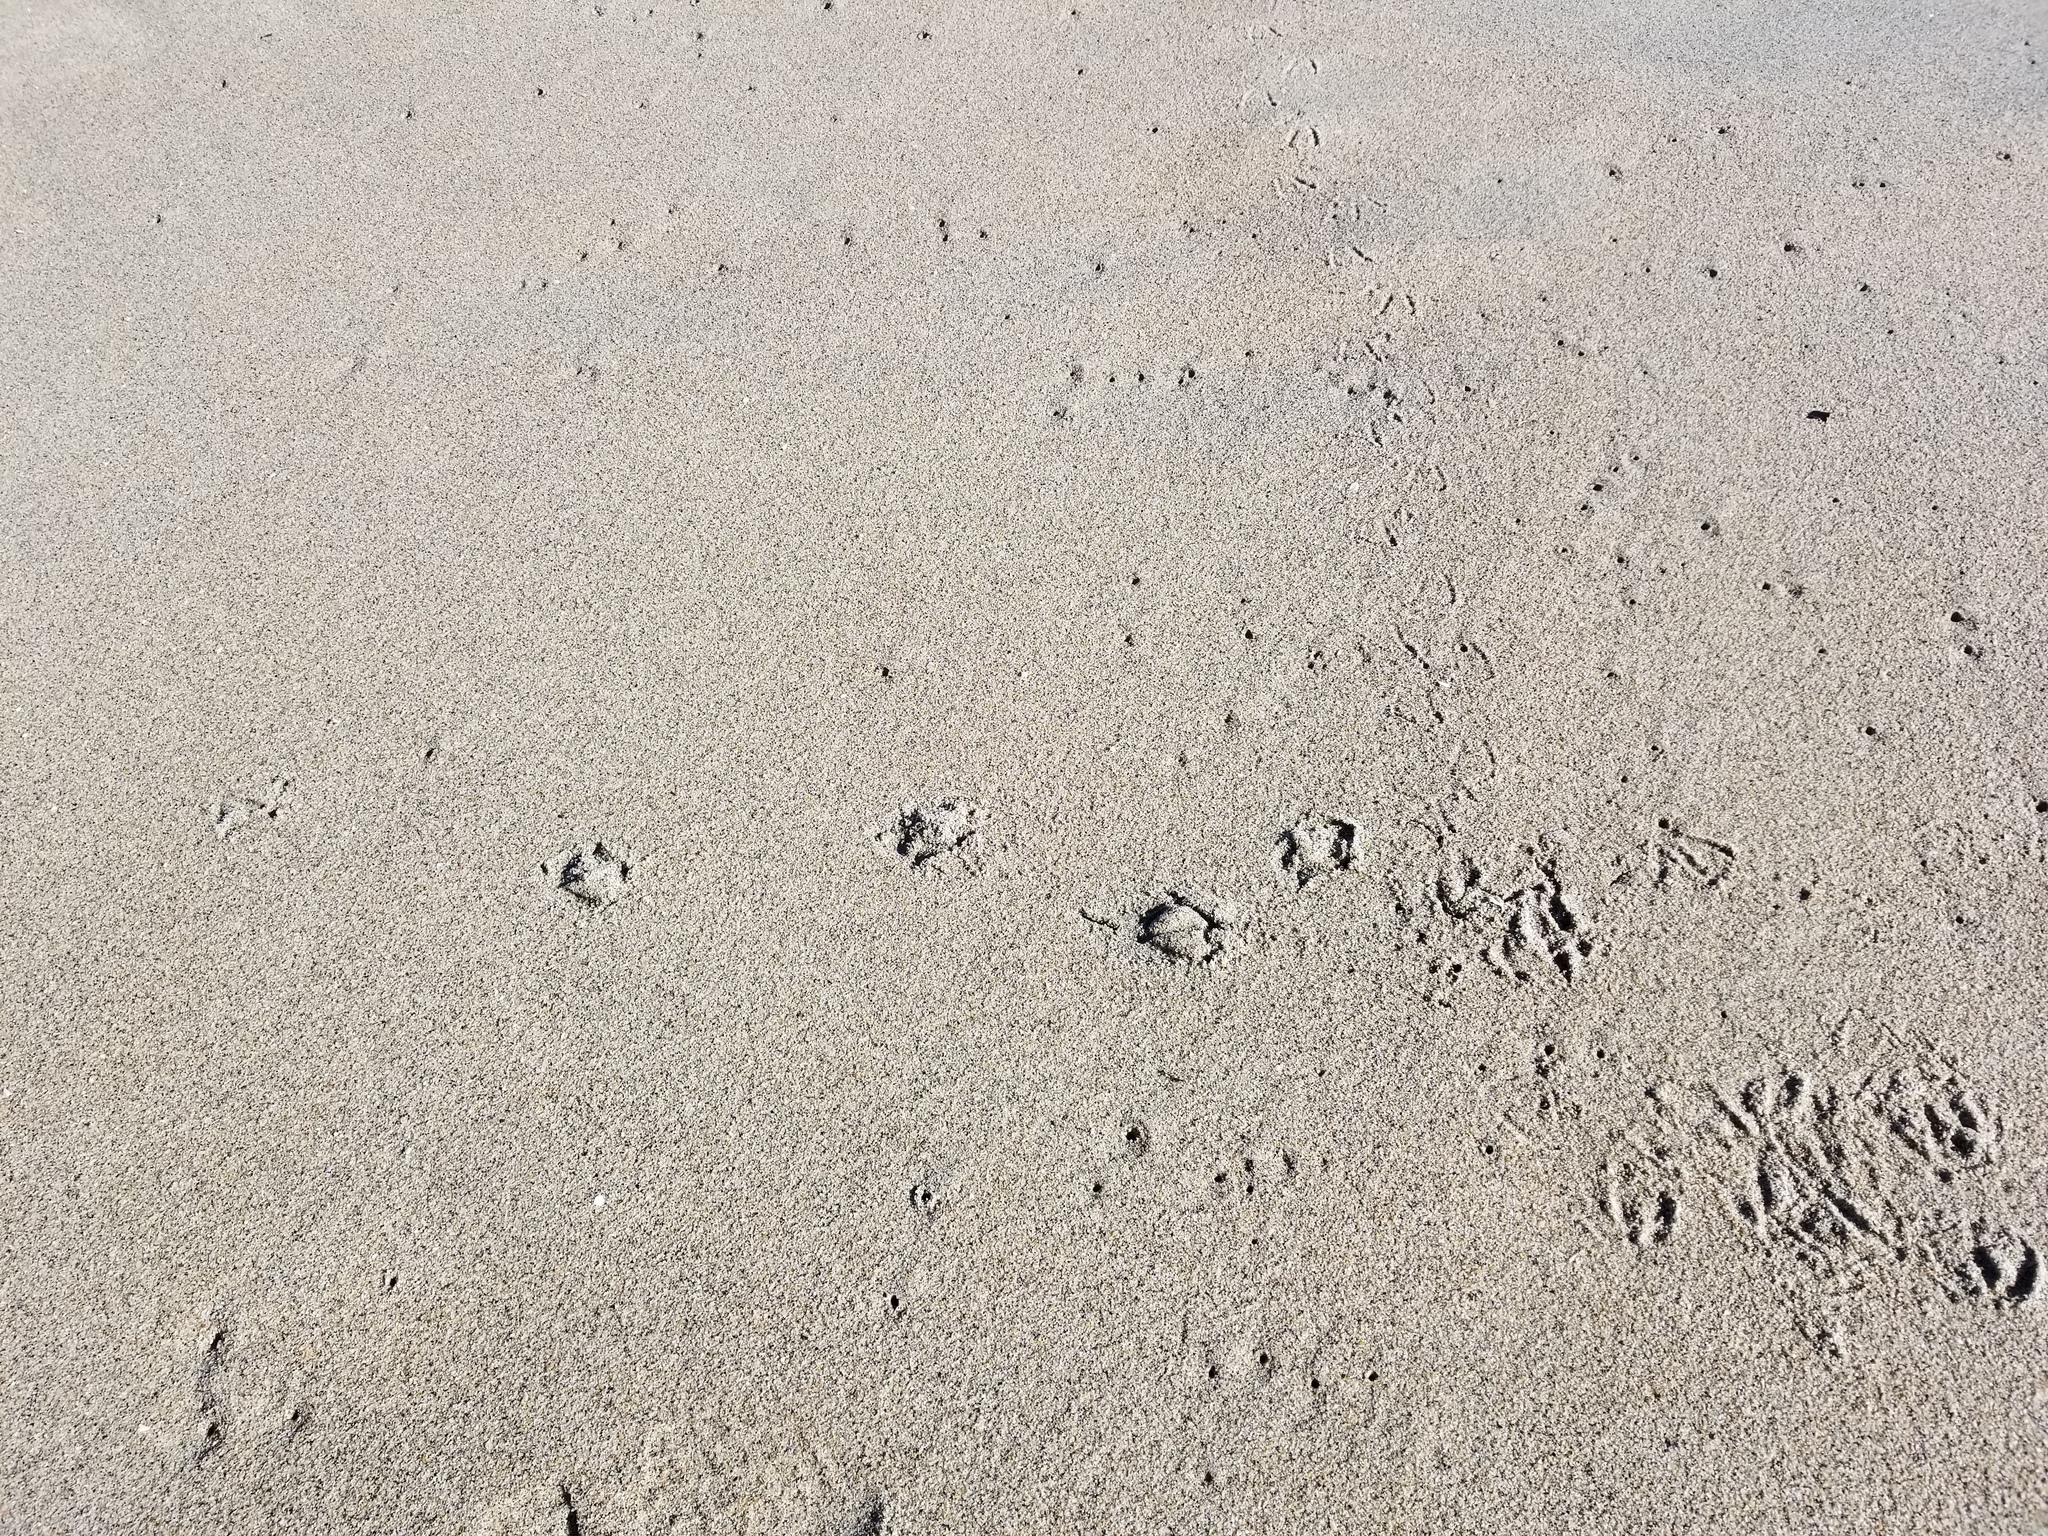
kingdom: Animalia
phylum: Chordata
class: Aves
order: Sphenisciformes
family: Spheniscidae
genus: Eudyptula
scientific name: Eudyptula minor
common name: Little penguin
